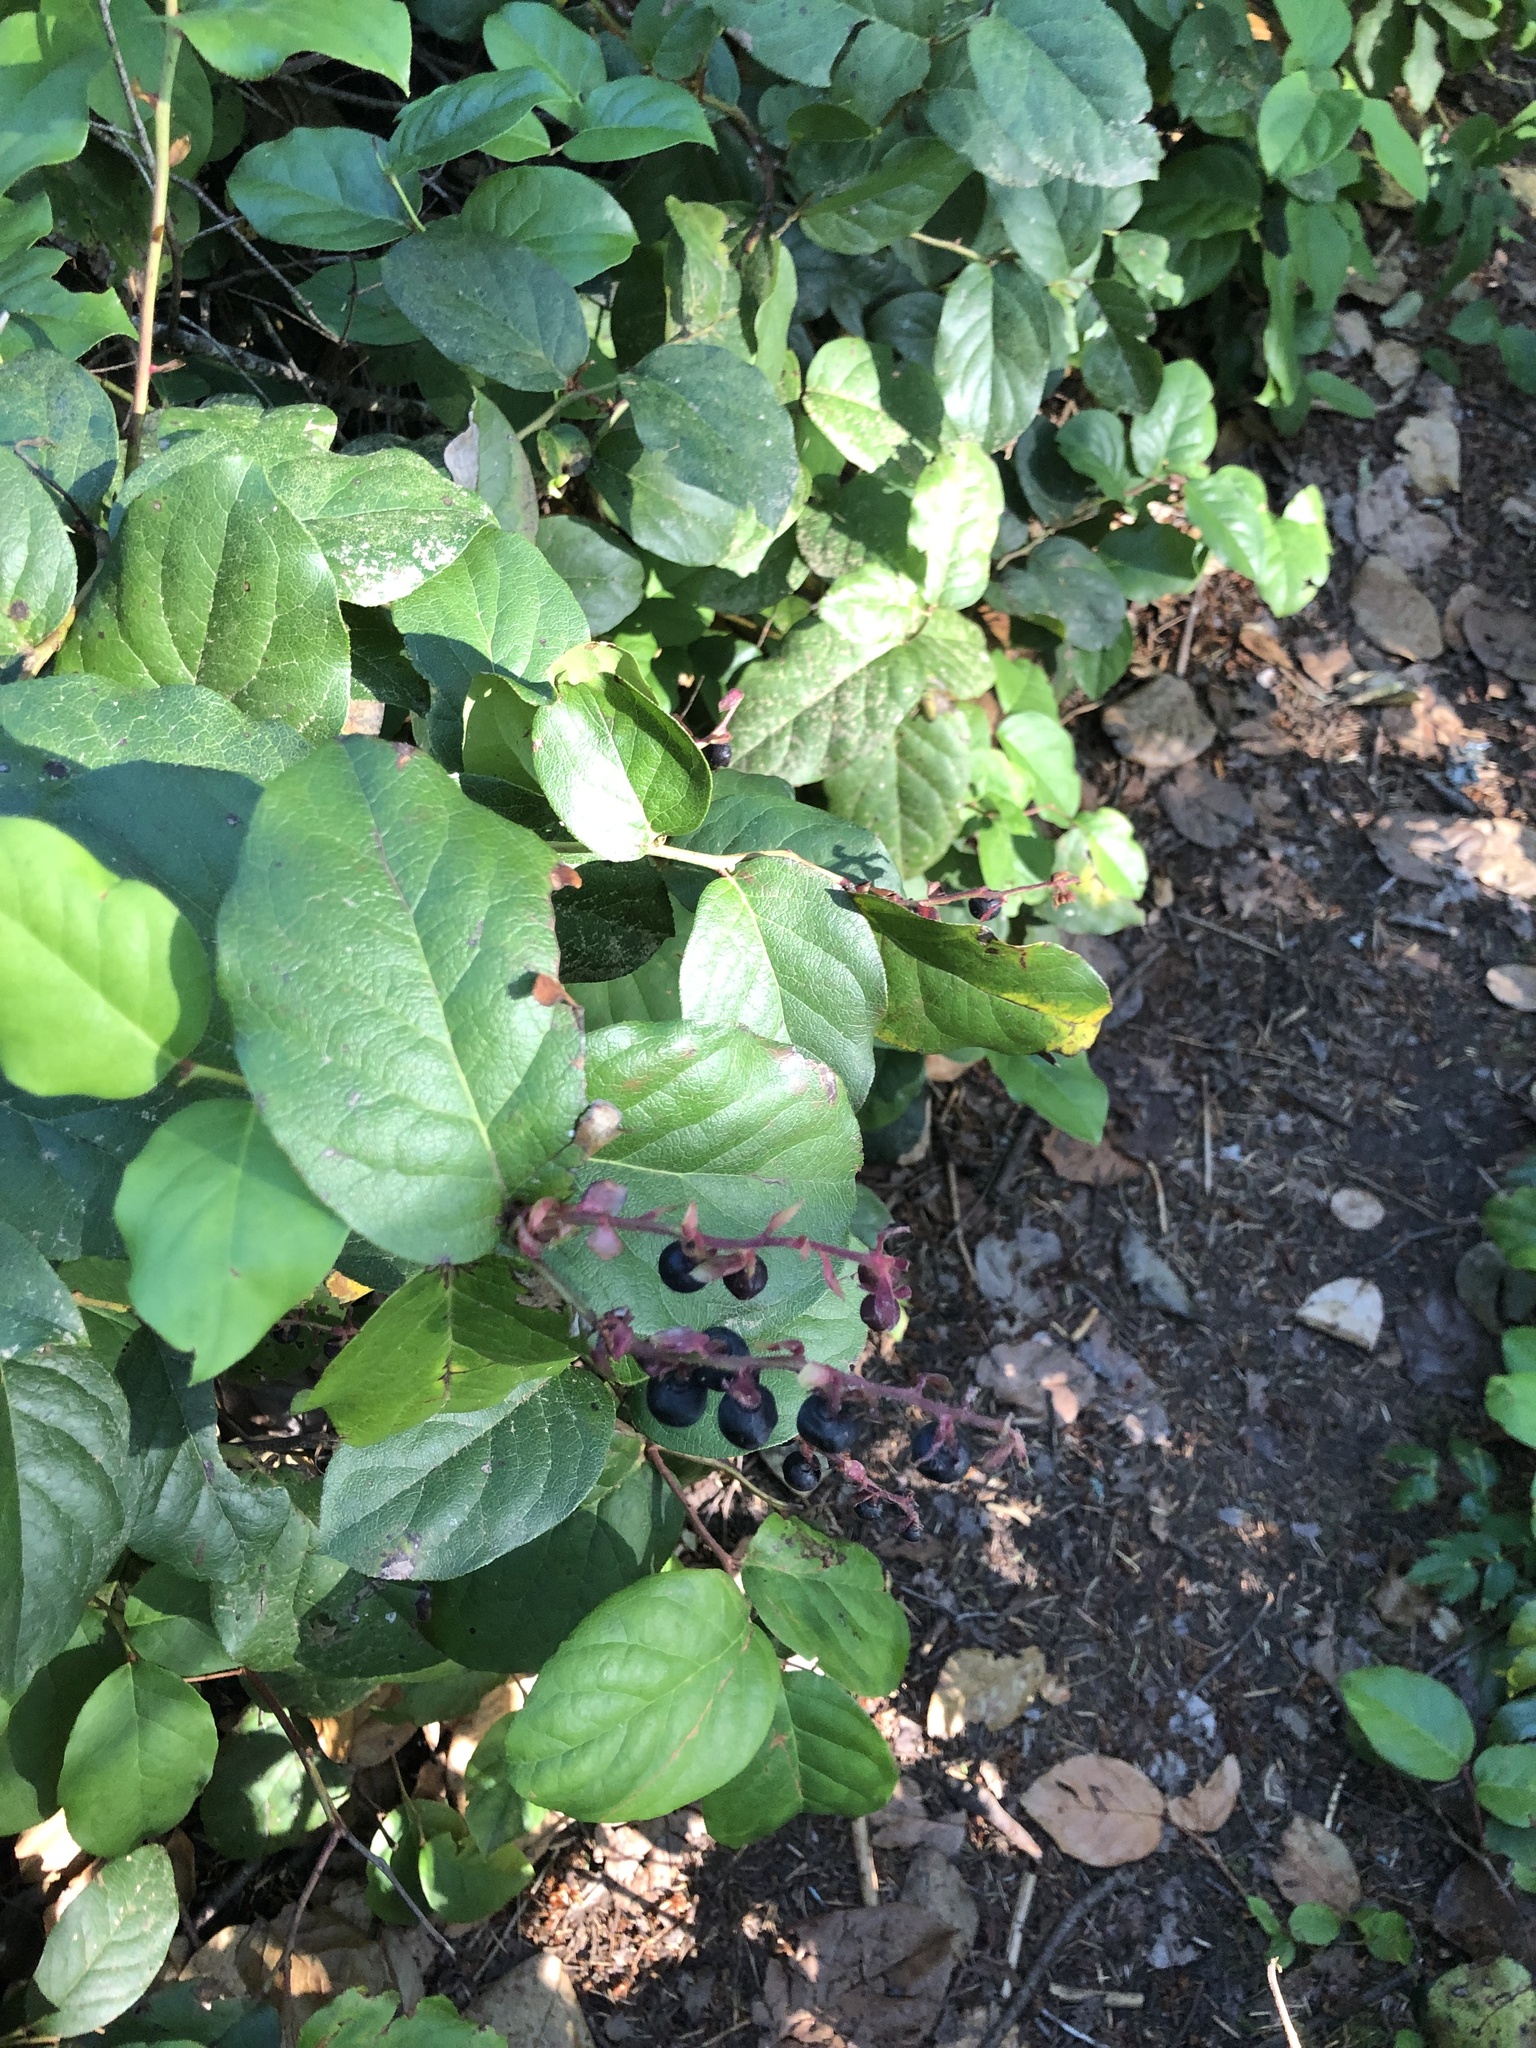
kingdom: Plantae
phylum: Tracheophyta
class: Magnoliopsida
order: Ericales
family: Ericaceae
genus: Gaultheria
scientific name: Gaultheria shallon
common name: Shallon
